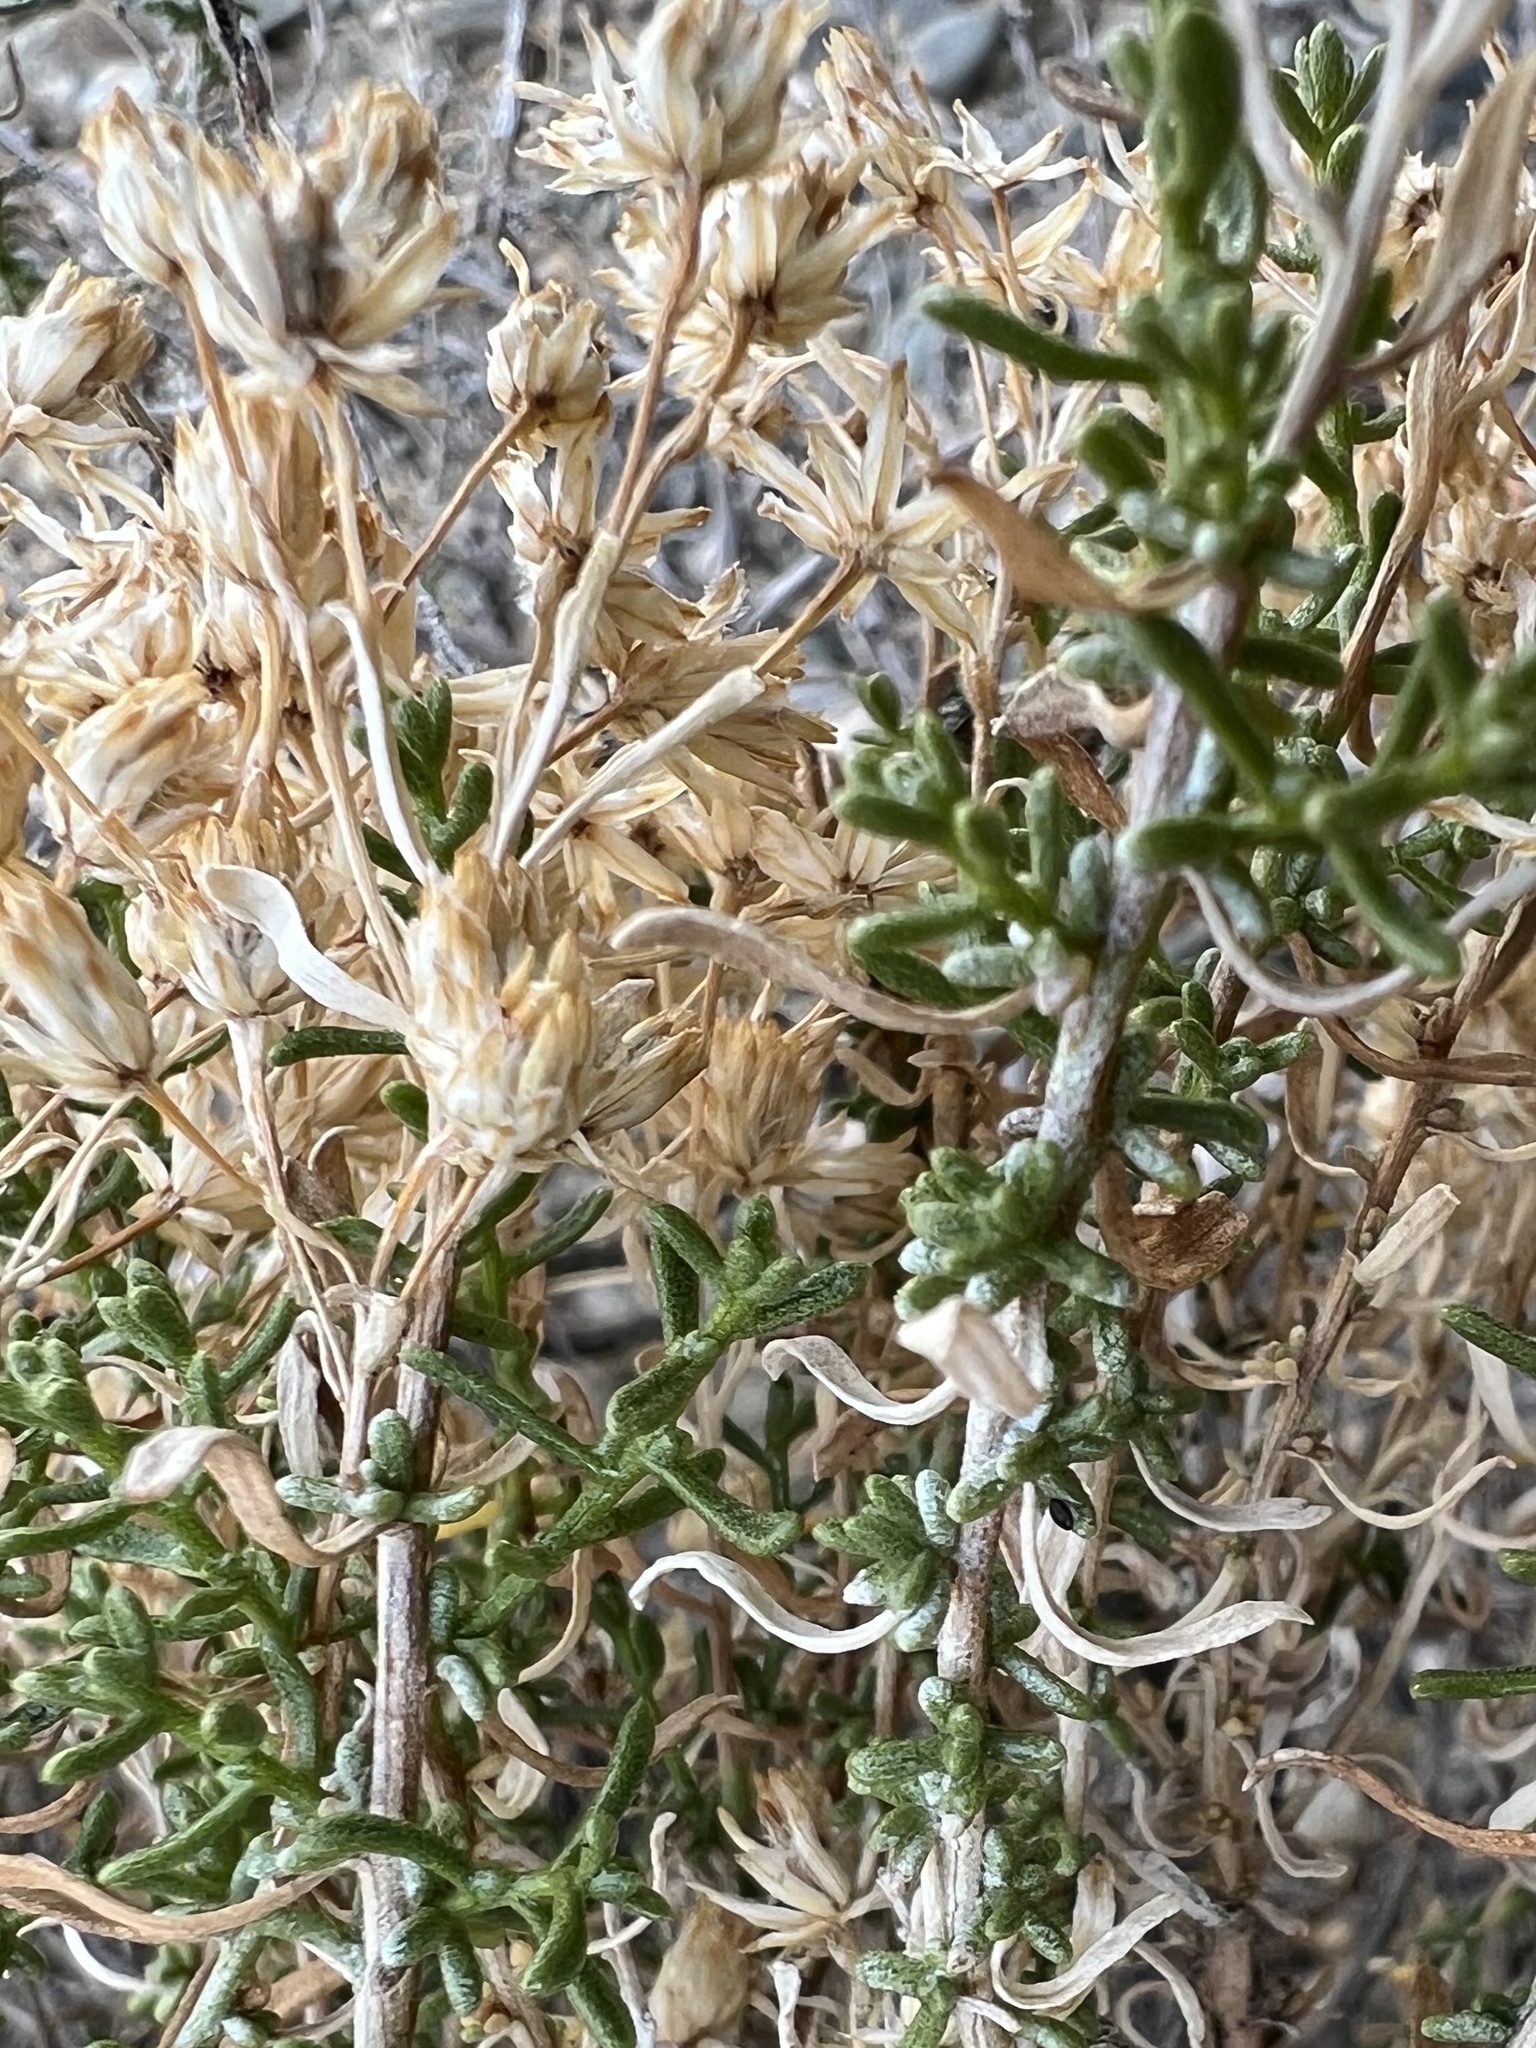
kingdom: Plantae
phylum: Tracheophyta
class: Magnoliopsida
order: Asterales
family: Asteraceae
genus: Ericameria
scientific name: Ericameria cooperi
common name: Cooper's goldenbush
